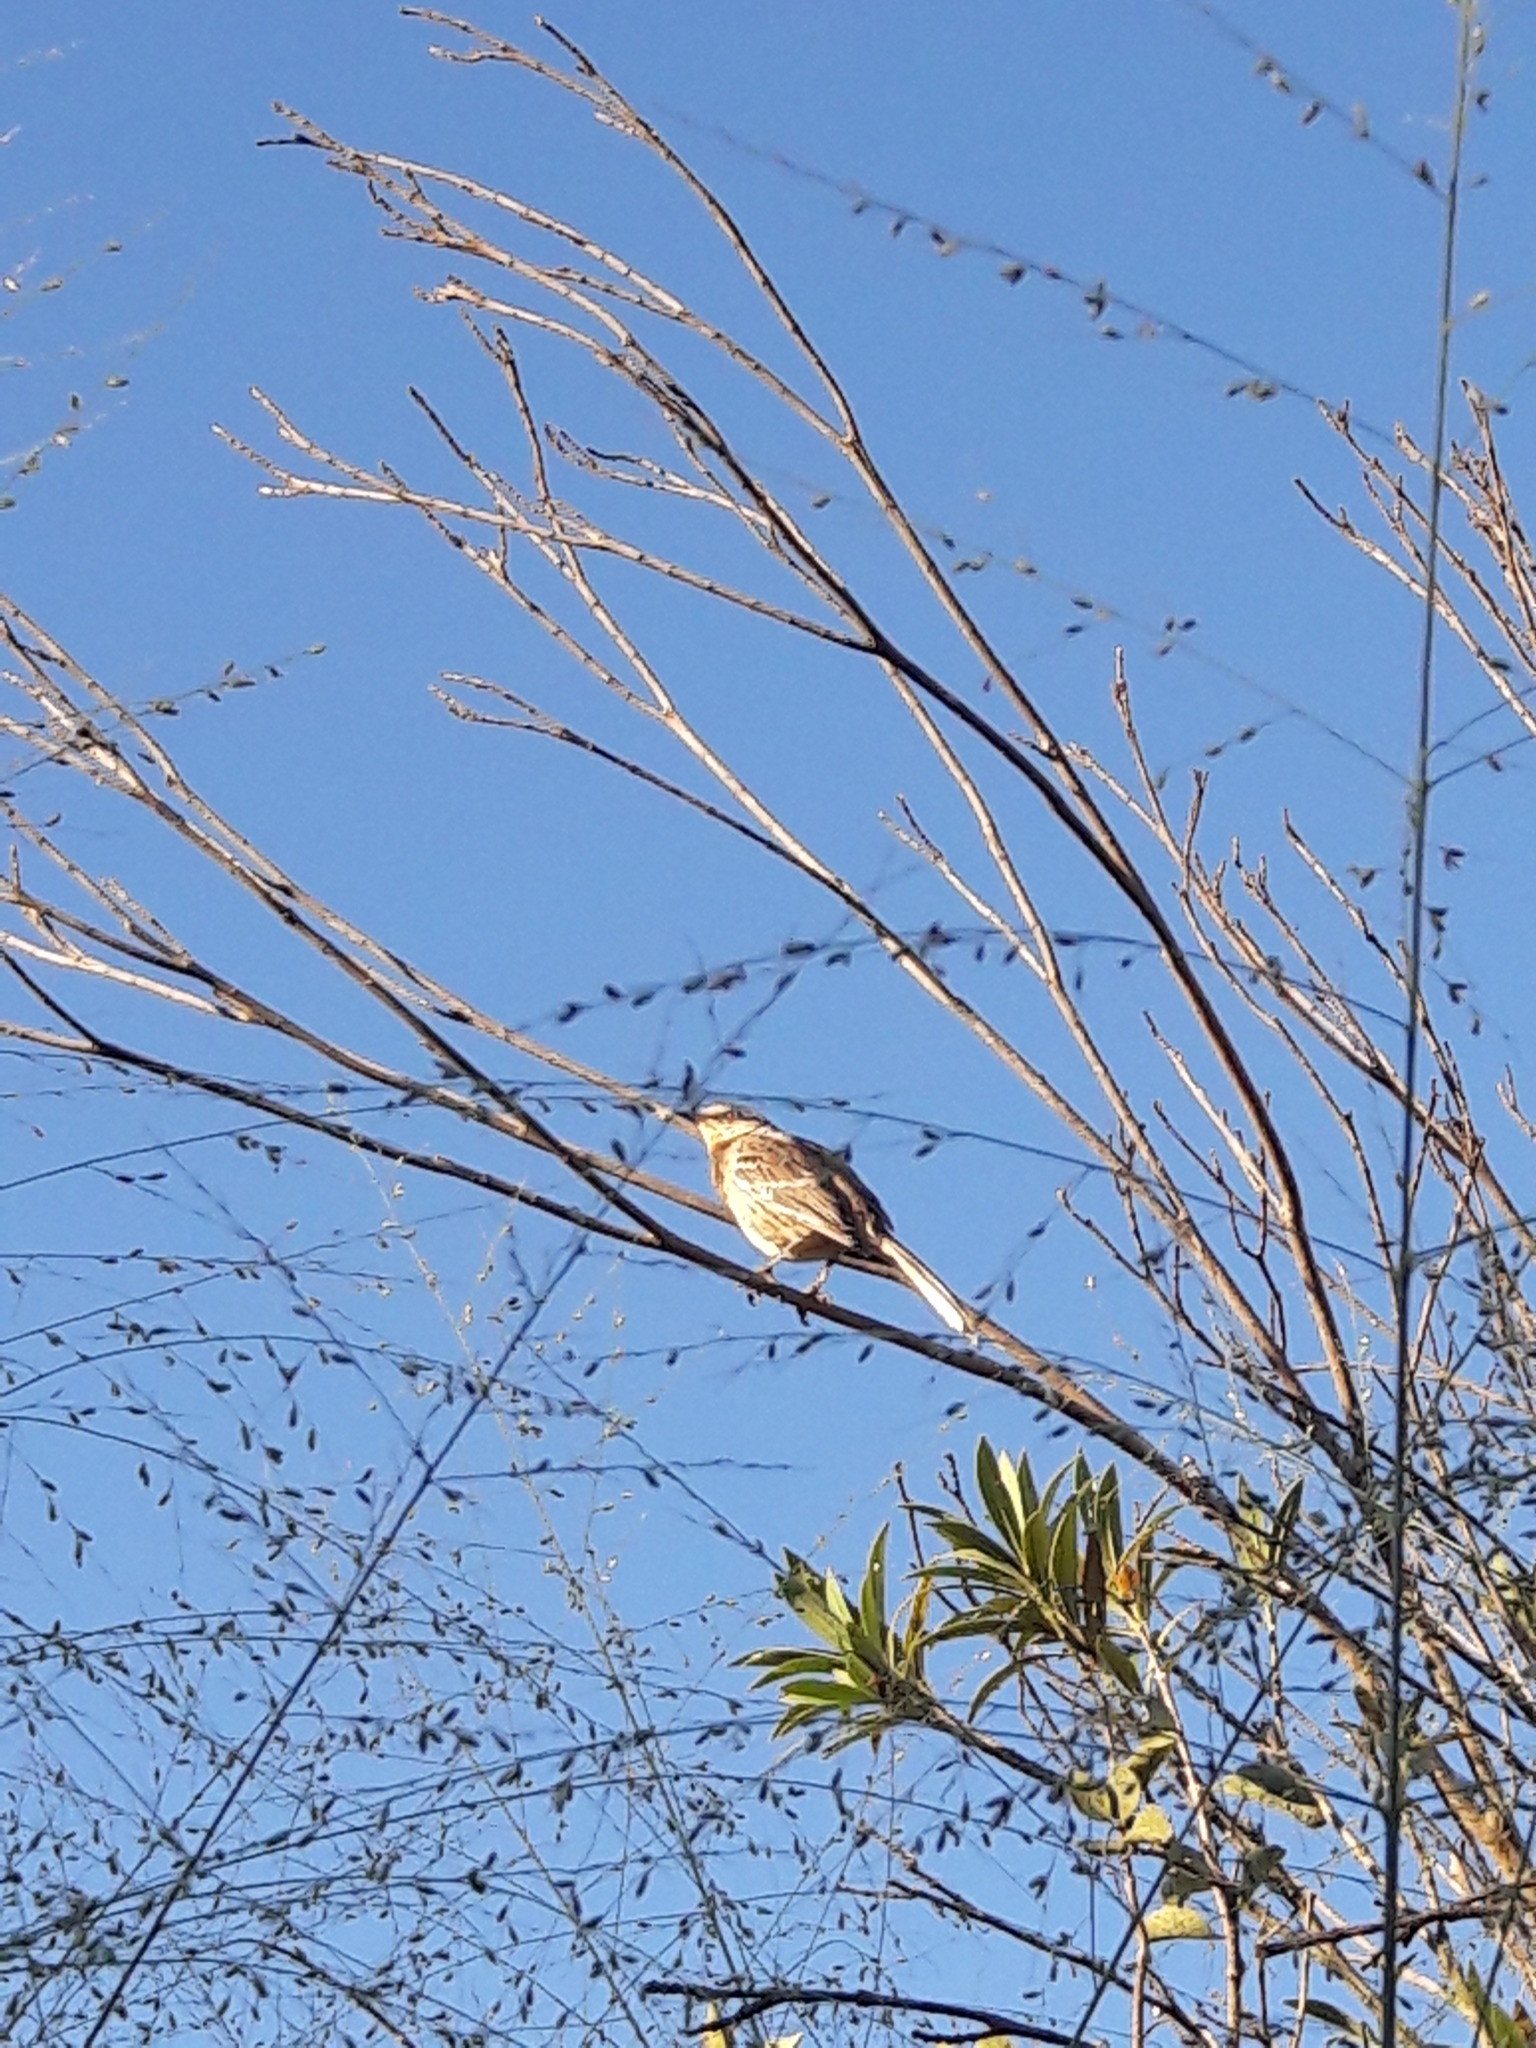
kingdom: Animalia
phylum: Chordata
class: Aves
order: Passeriformes
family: Mimidae
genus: Mimus
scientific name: Mimus saturninus
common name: Chalk-browed mockingbird
